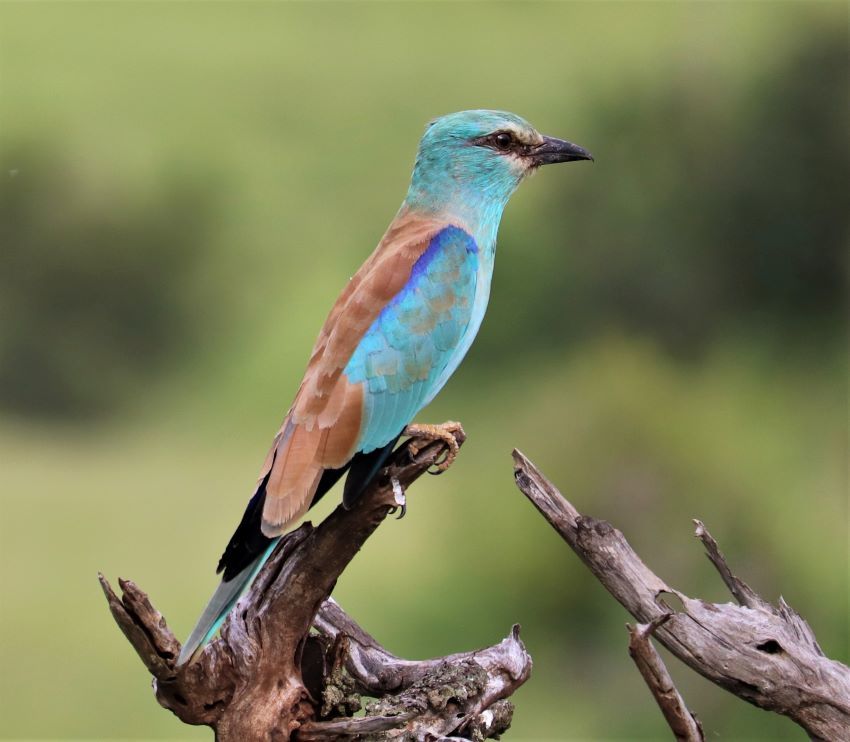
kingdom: Animalia
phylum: Chordata
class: Aves
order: Coraciiformes
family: Coraciidae
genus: Coracias
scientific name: Coracias garrulus
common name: European roller
